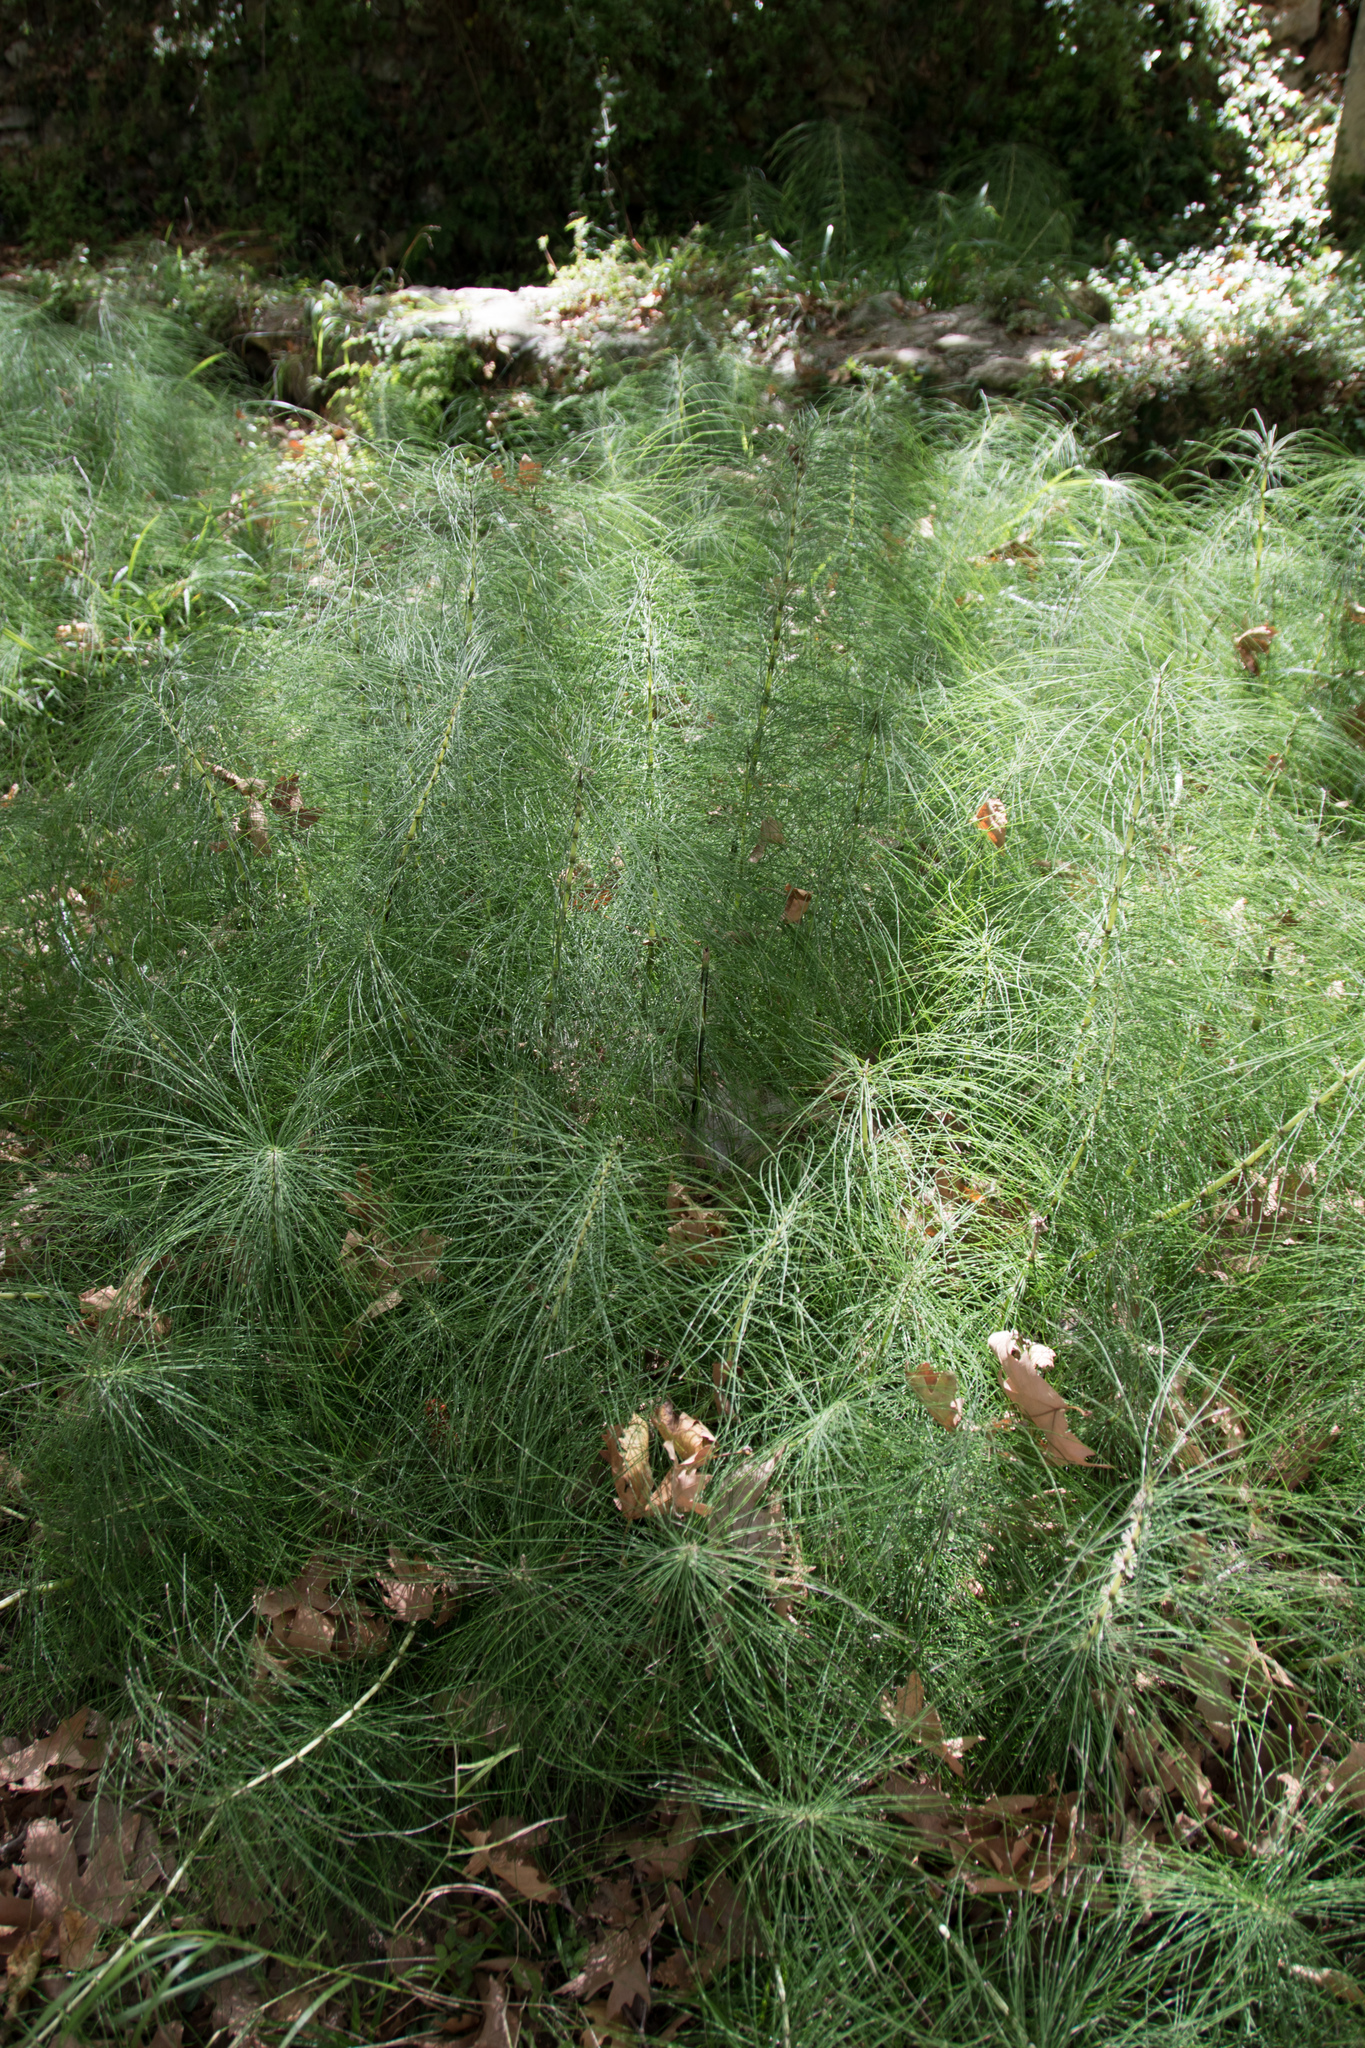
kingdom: Plantae
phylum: Tracheophyta
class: Polypodiopsida
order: Equisetales
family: Equisetaceae
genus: Equisetum
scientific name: Equisetum telmateia
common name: Great horsetail
